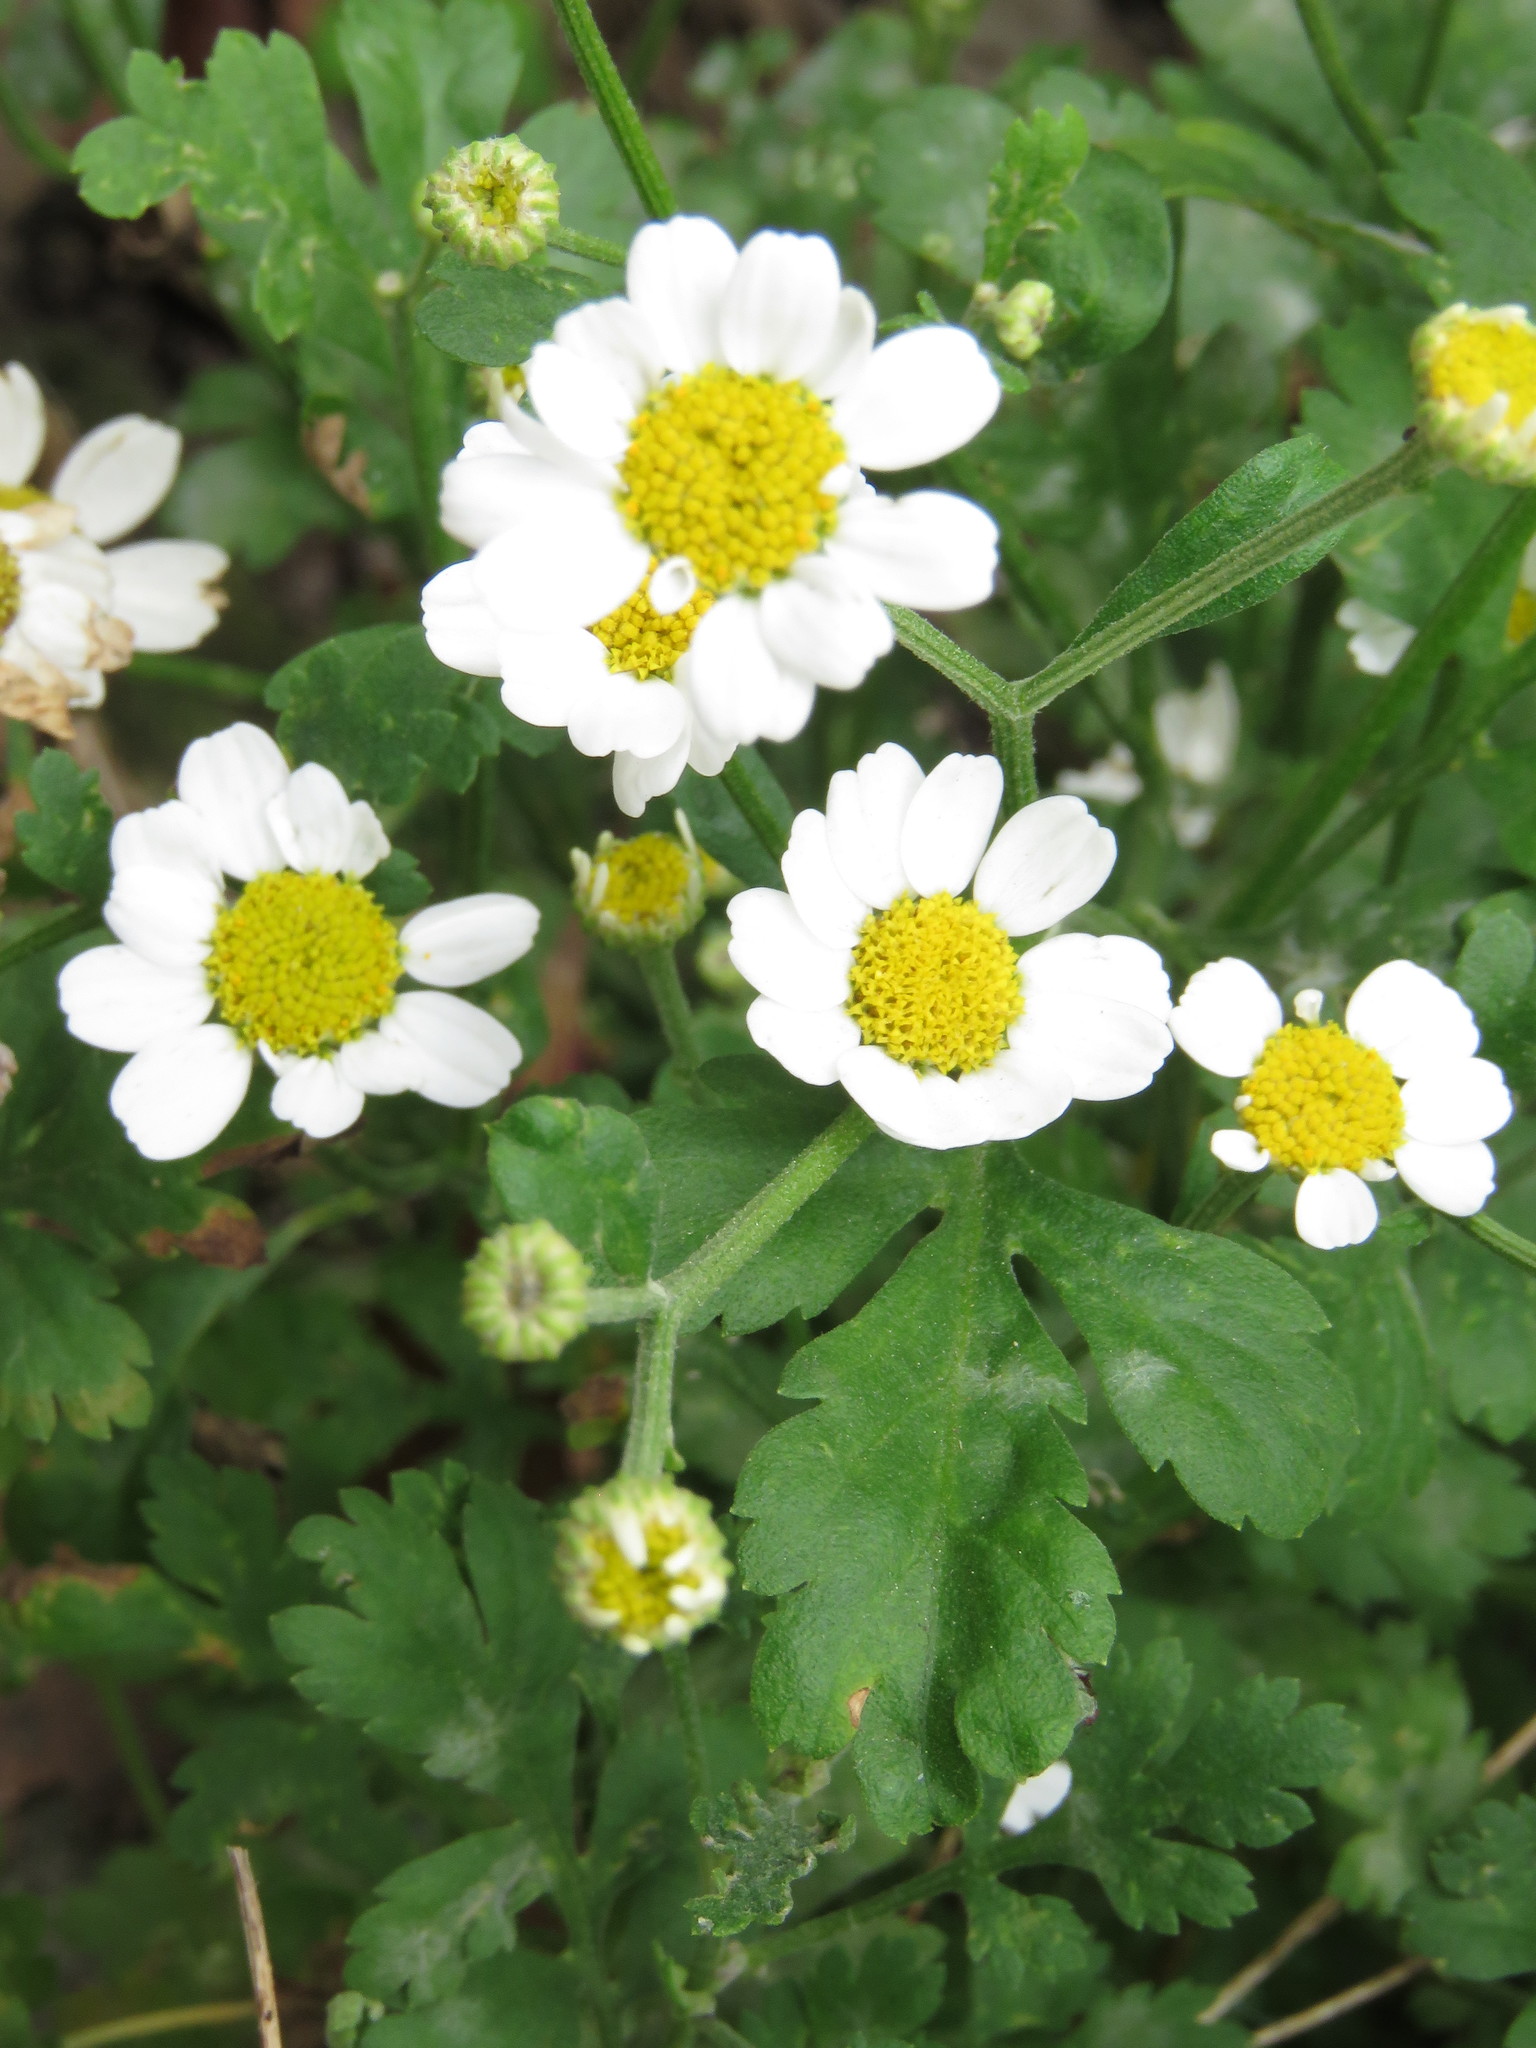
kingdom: Plantae
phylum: Tracheophyta
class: Magnoliopsida
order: Asterales
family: Asteraceae
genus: Tanacetum
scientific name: Tanacetum parthenium
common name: Feverfew
